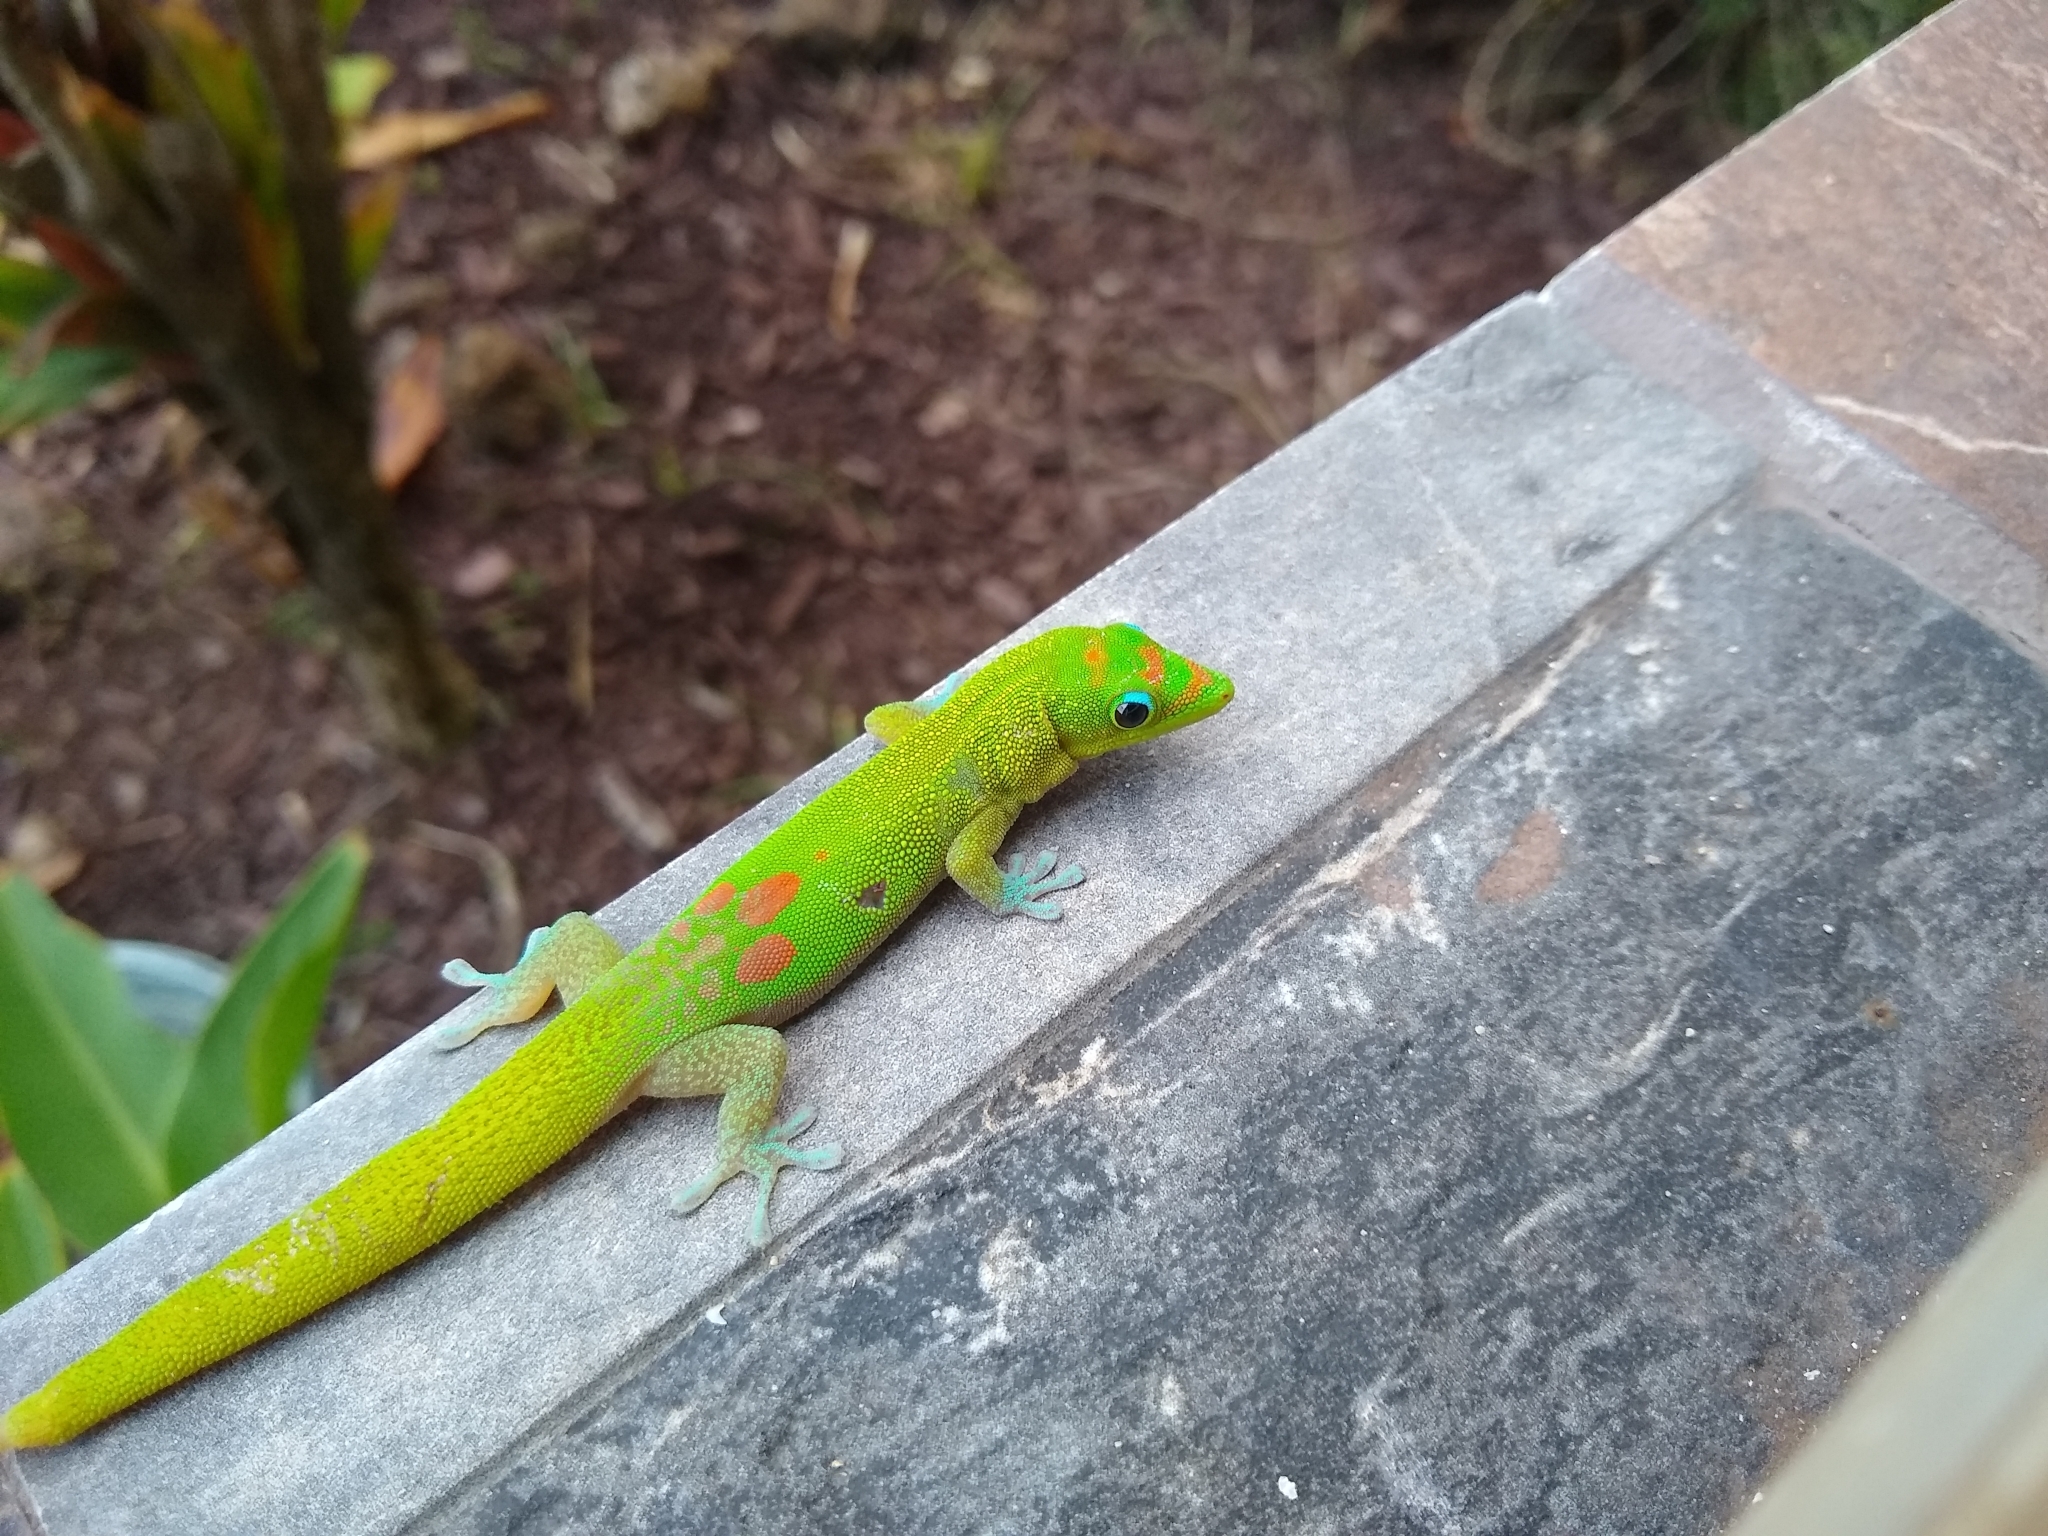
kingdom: Animalia
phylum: Chordata
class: Squamata
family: Gekkonidae
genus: Phelsuma
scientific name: Phelsuma laticauda
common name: Gold dust day gecko
